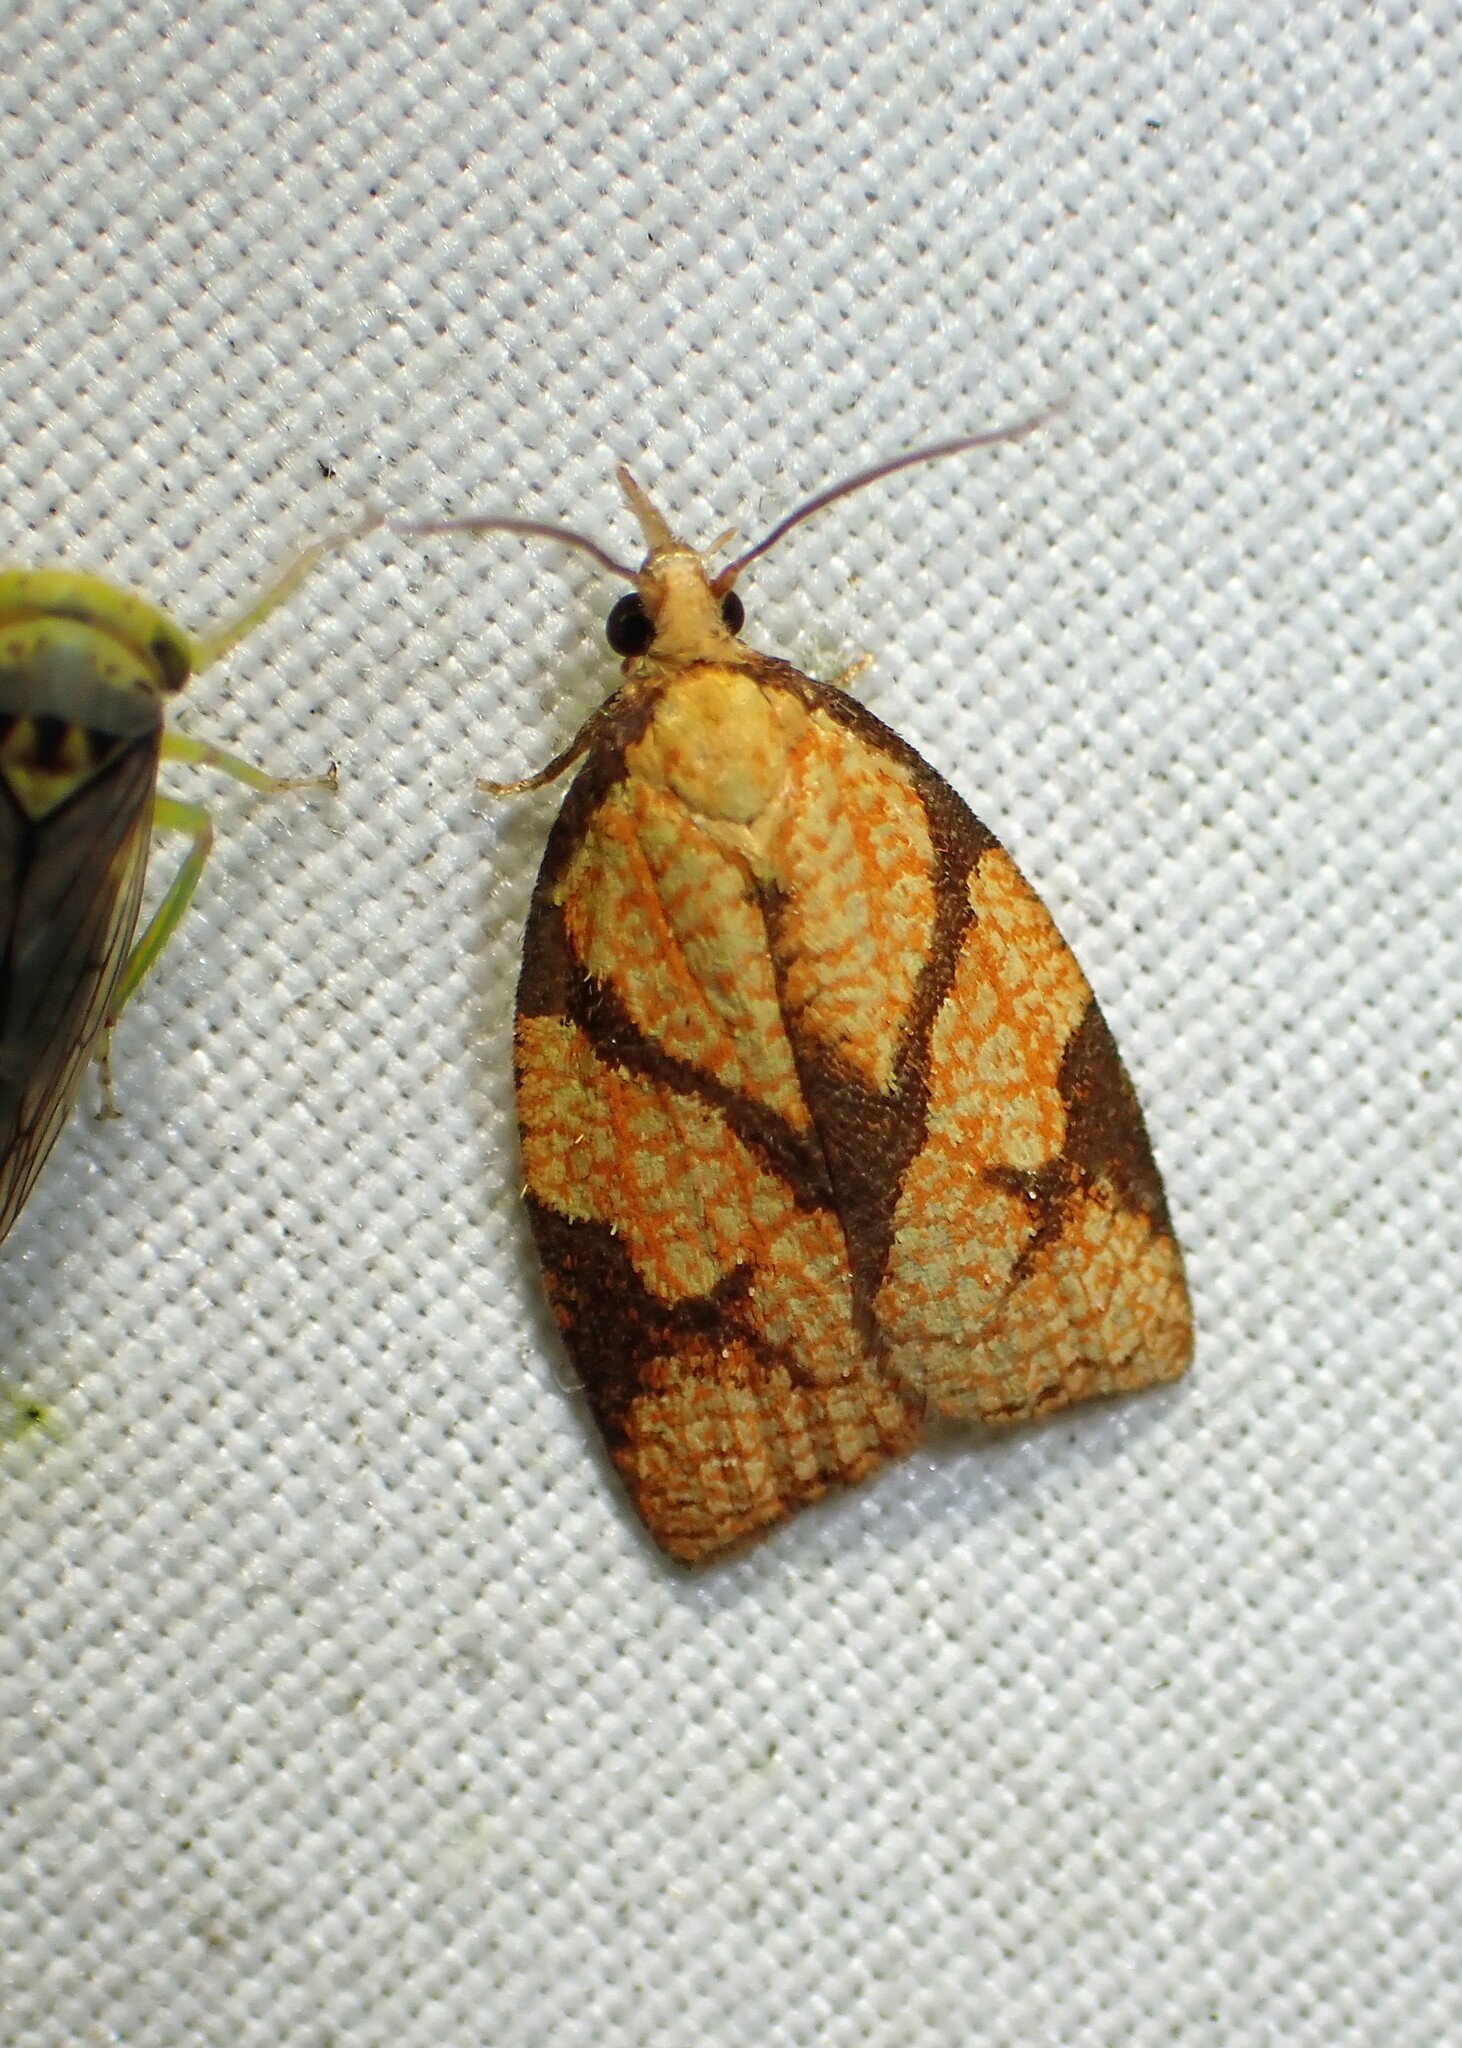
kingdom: Animalia
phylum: Arthropoda
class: Insecta
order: Lepidoptera
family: Tortricidae
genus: Cenopis
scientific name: Cenopis reticulatana
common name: Reticulated fruitworm moth
